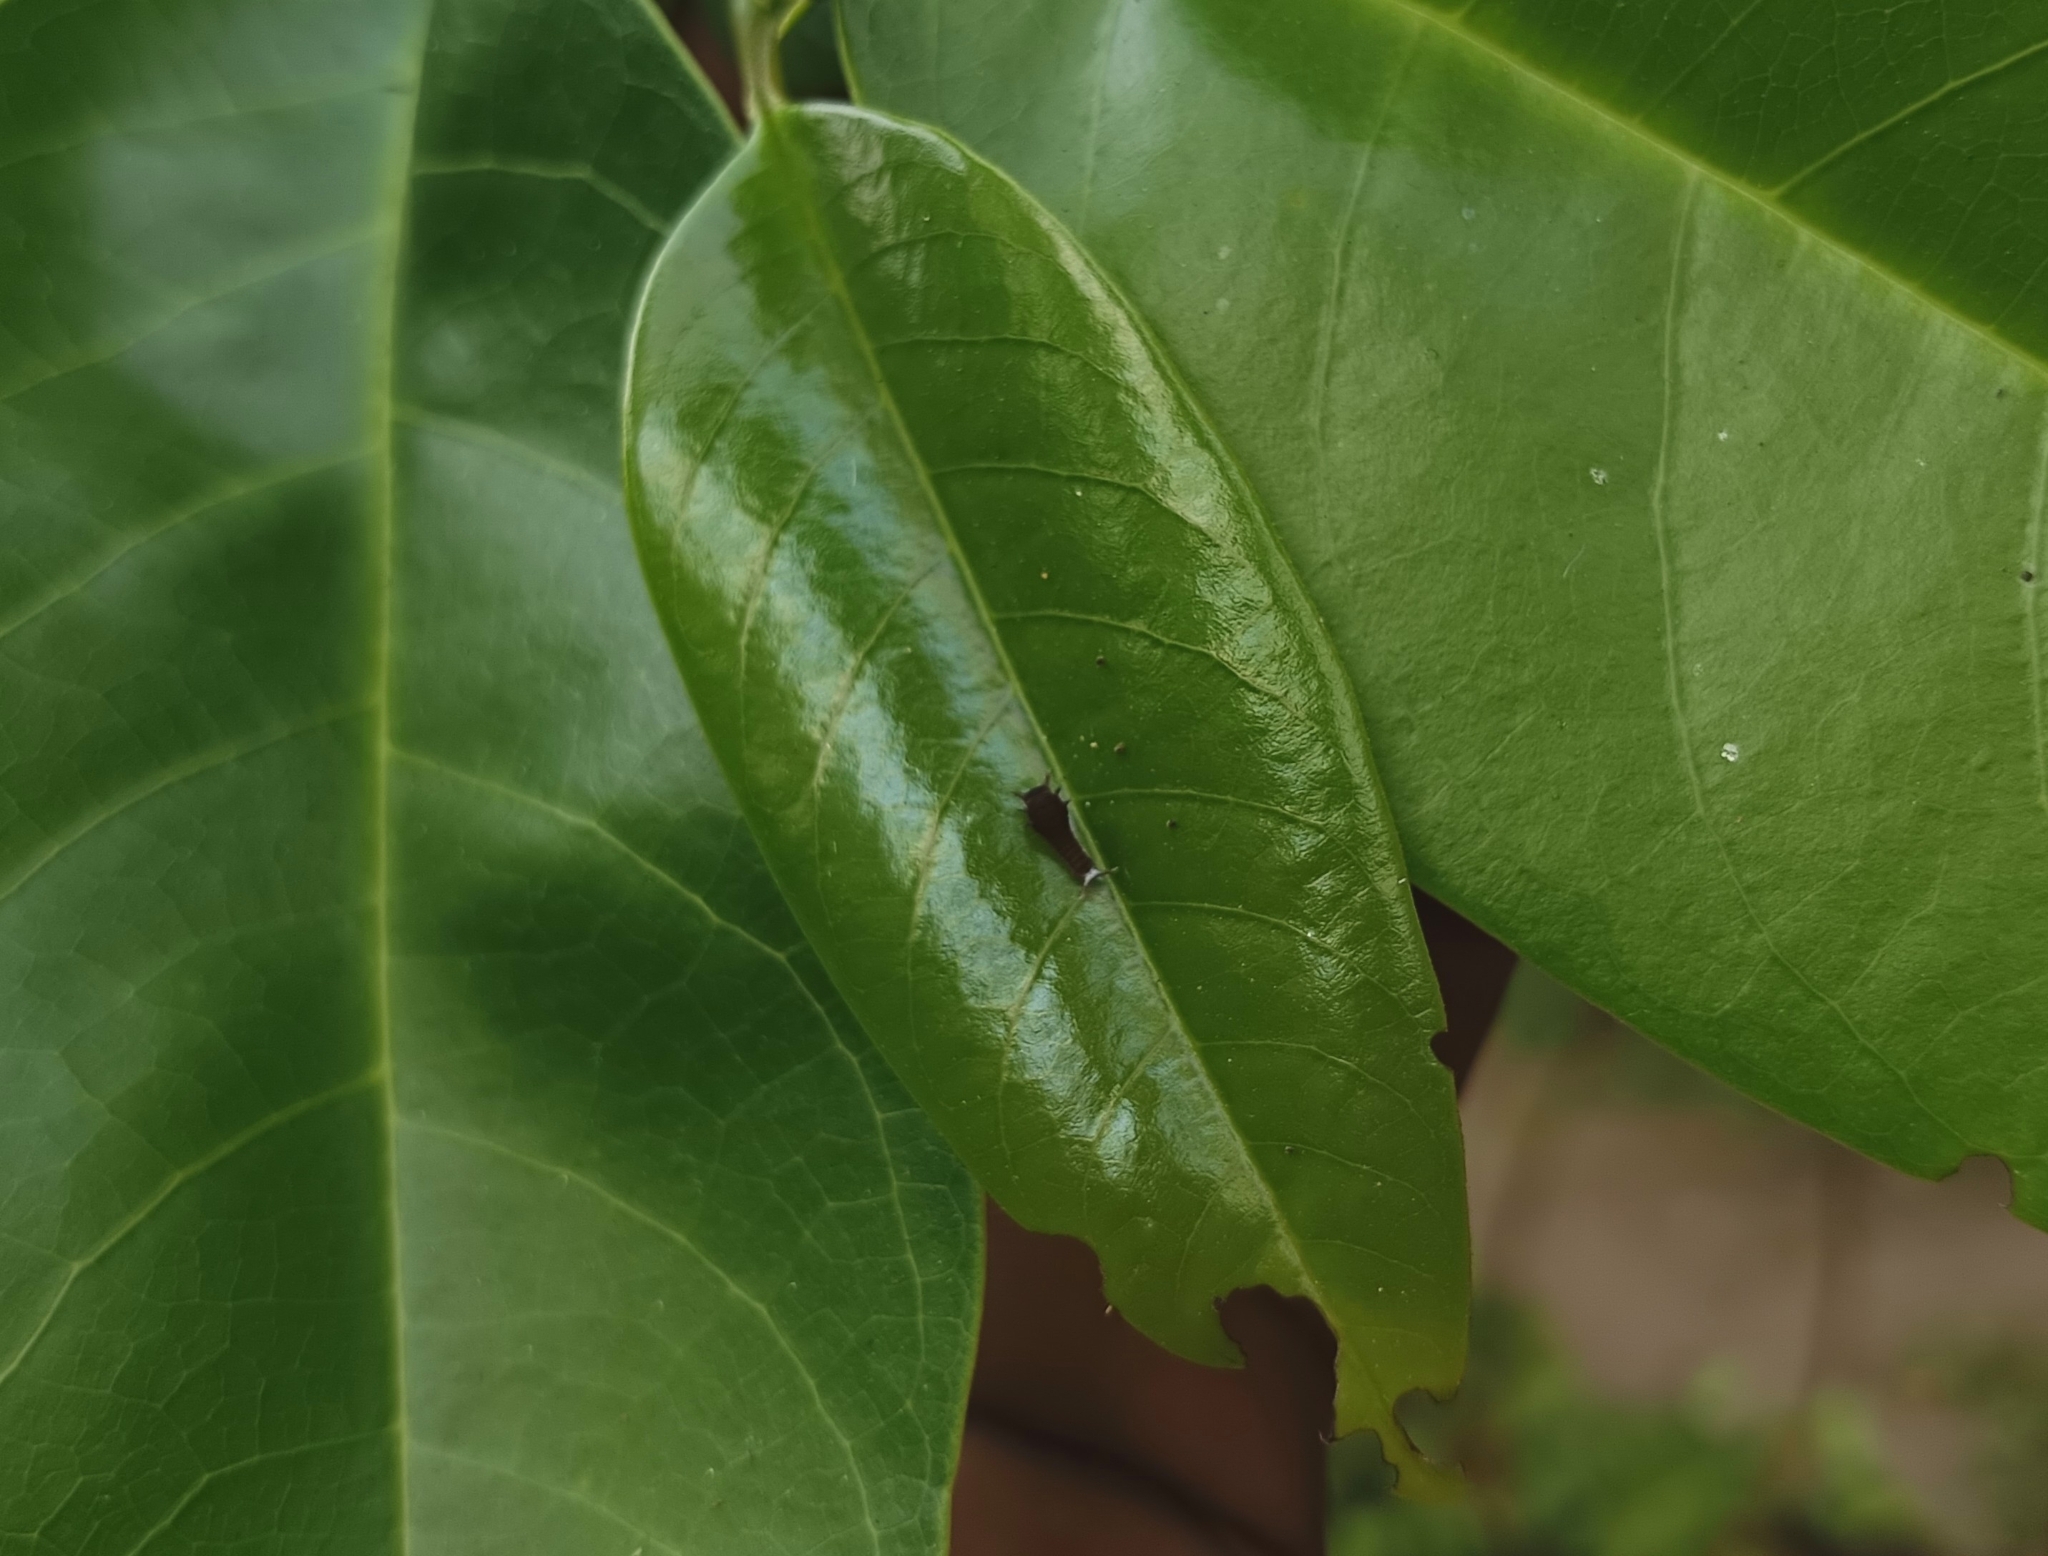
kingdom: Animalia
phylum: Arthropoda
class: Insecta
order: Lepidoptera
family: Papilionidae
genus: Graphium
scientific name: Graphium doson
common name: Common jay
